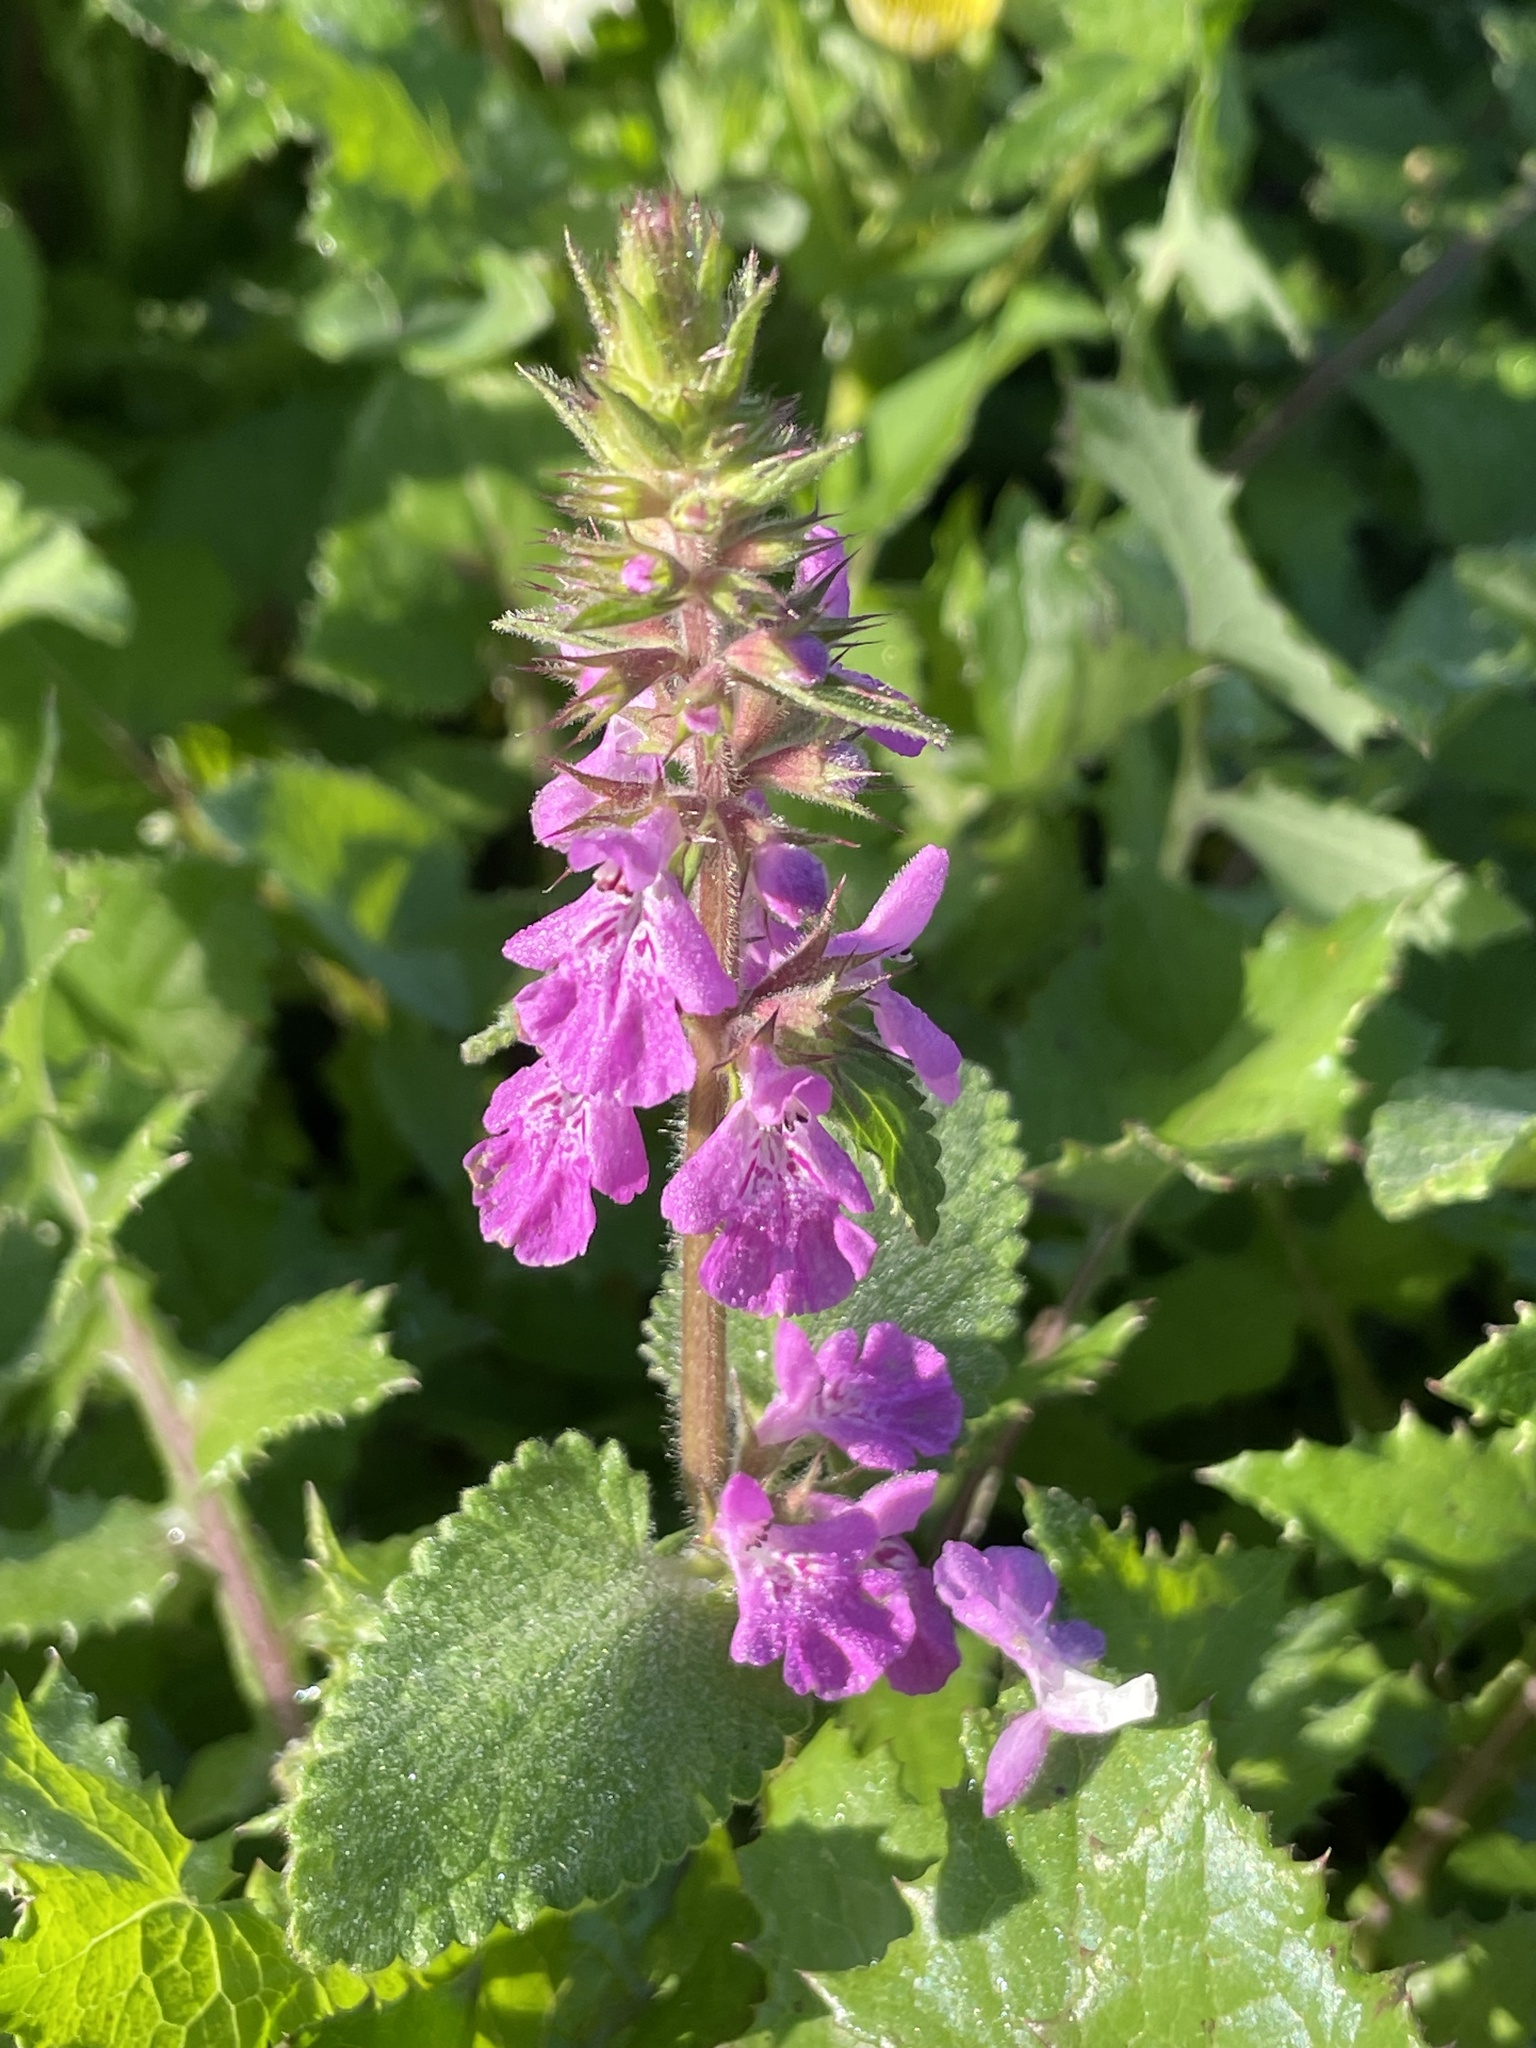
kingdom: Plantae
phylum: Tracheophyta
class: Magnoliopsida
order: Lamiales
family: Lamiaceae
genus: Stachys
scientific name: Stachys drummondii
